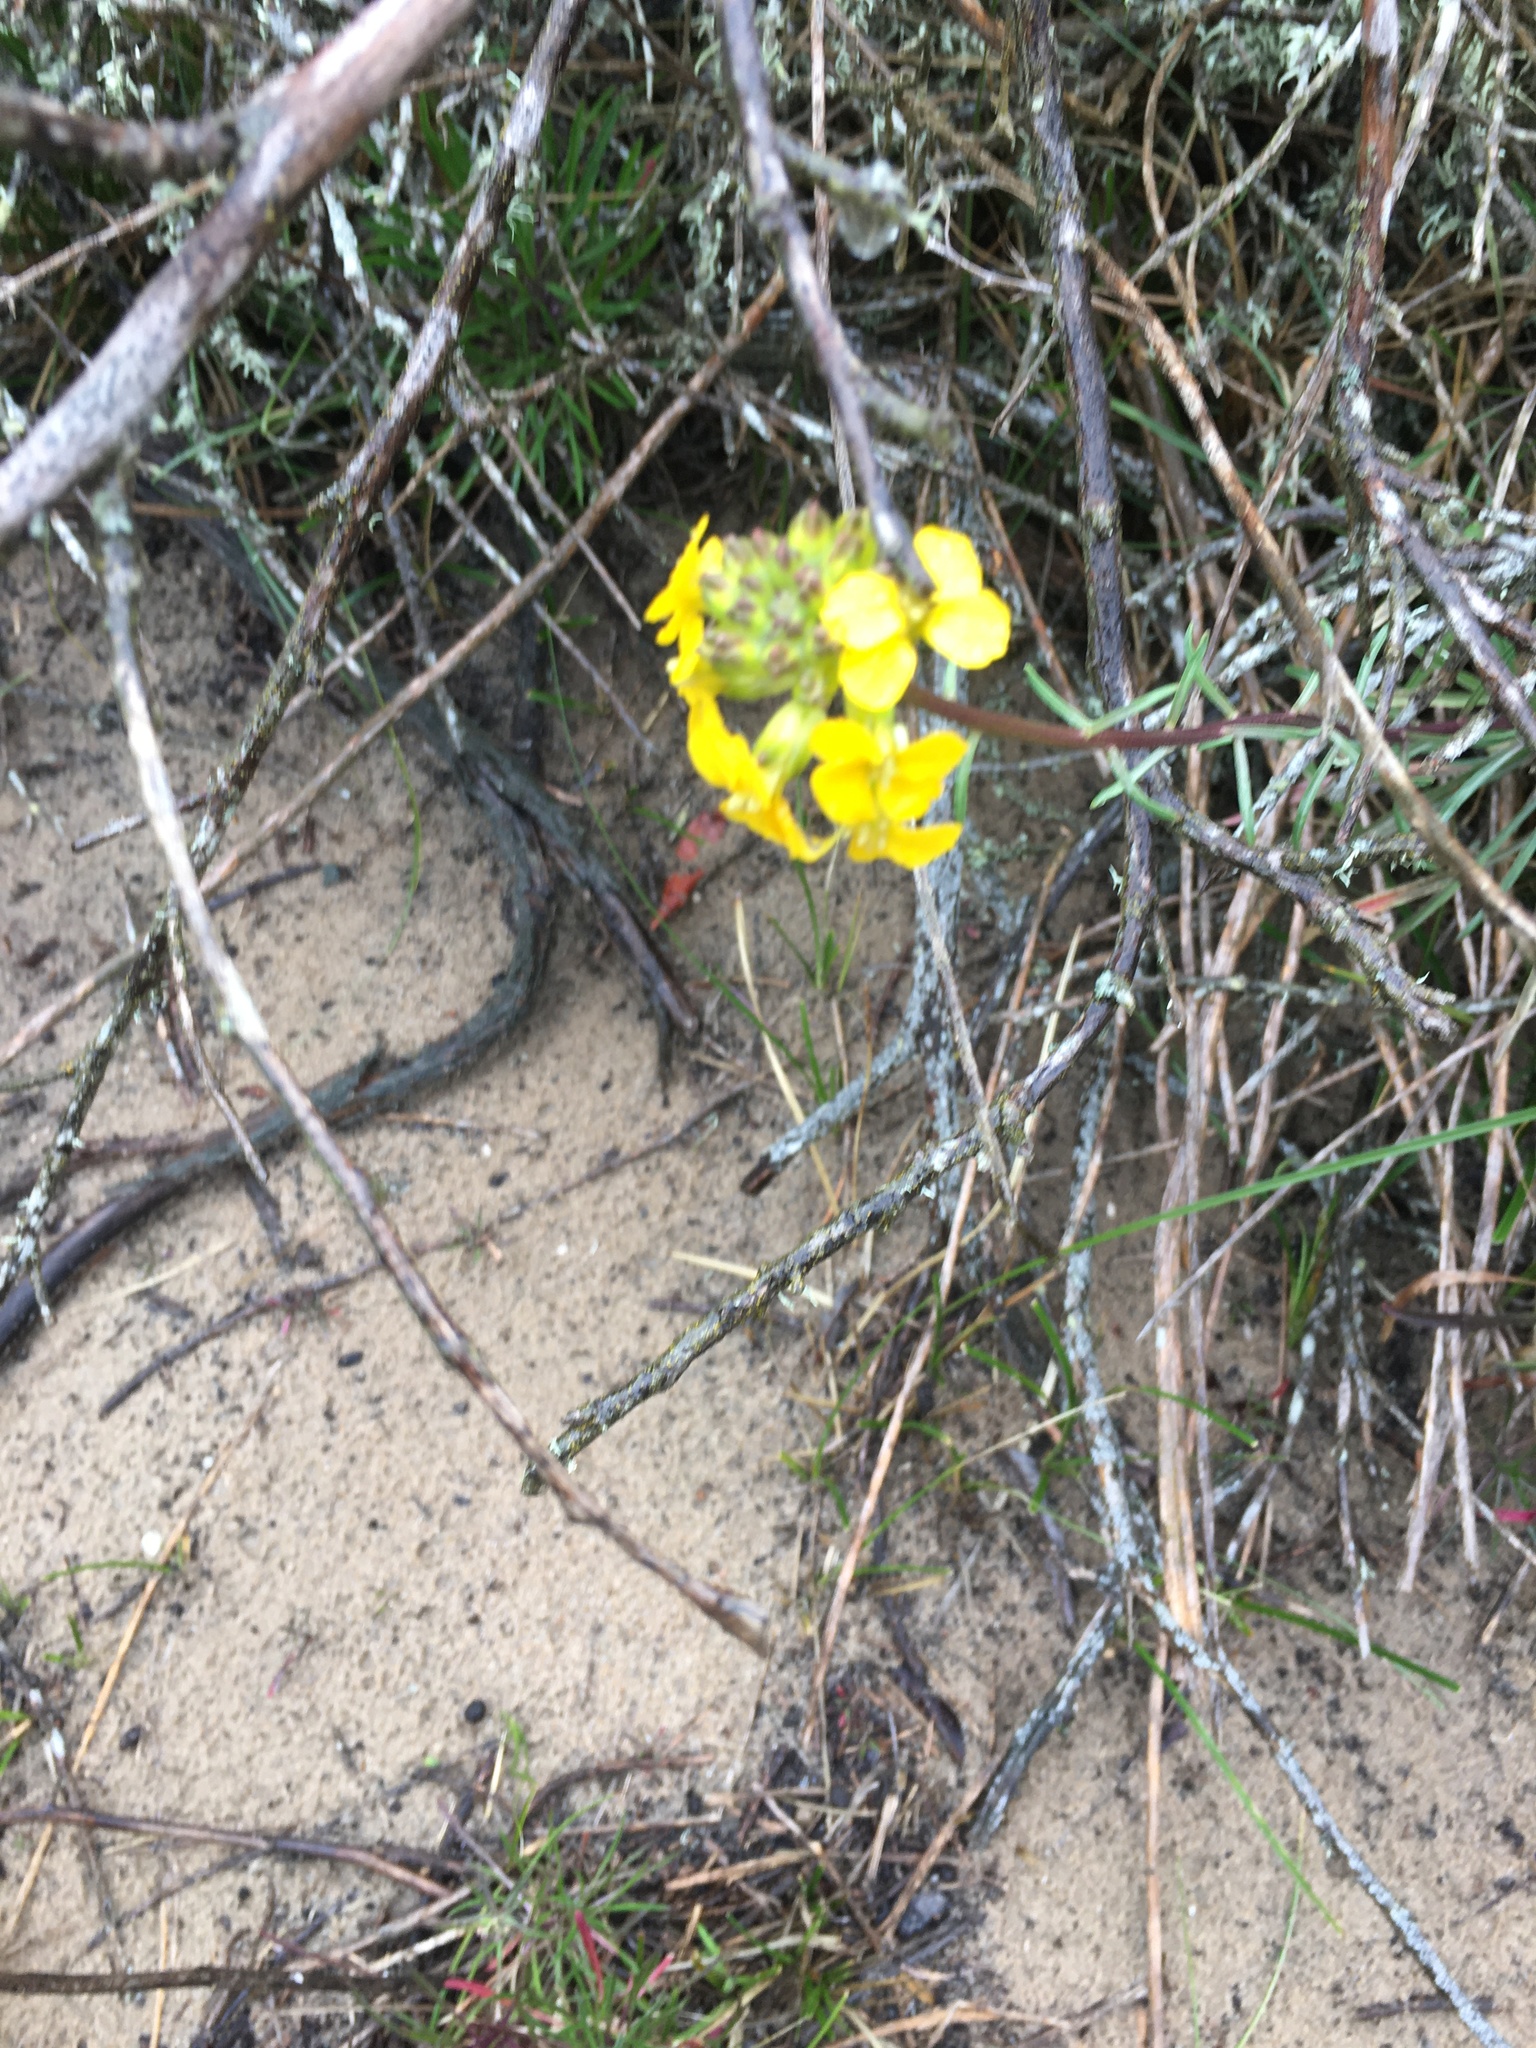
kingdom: Plantae
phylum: Tracheophyta
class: Magnoliopsida
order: Brassicales
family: Brassicaceae
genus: Erysimum
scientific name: Erysimum capitatum
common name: Western wallflower
